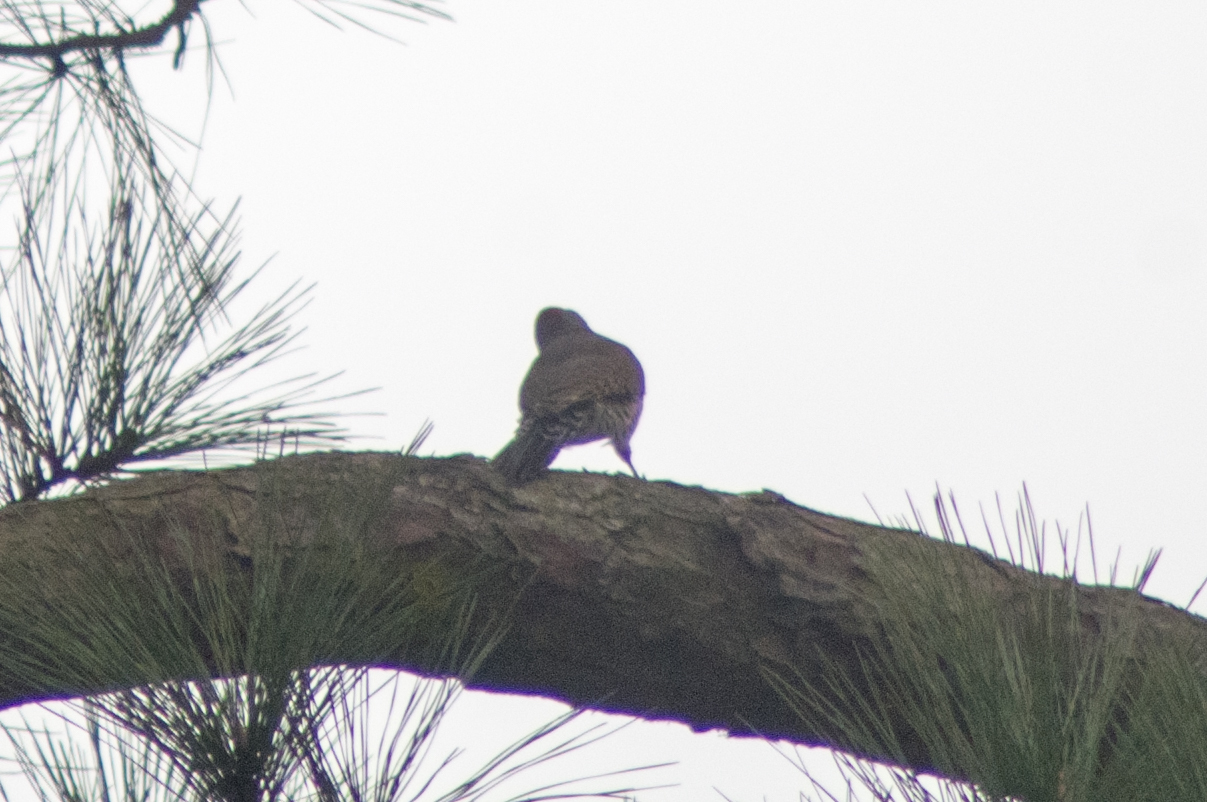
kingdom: Animalia
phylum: Chordata
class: Aves
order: Piciformes
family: Picidae
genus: Colaptes
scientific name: Colaptes auratus
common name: Northern flicker
